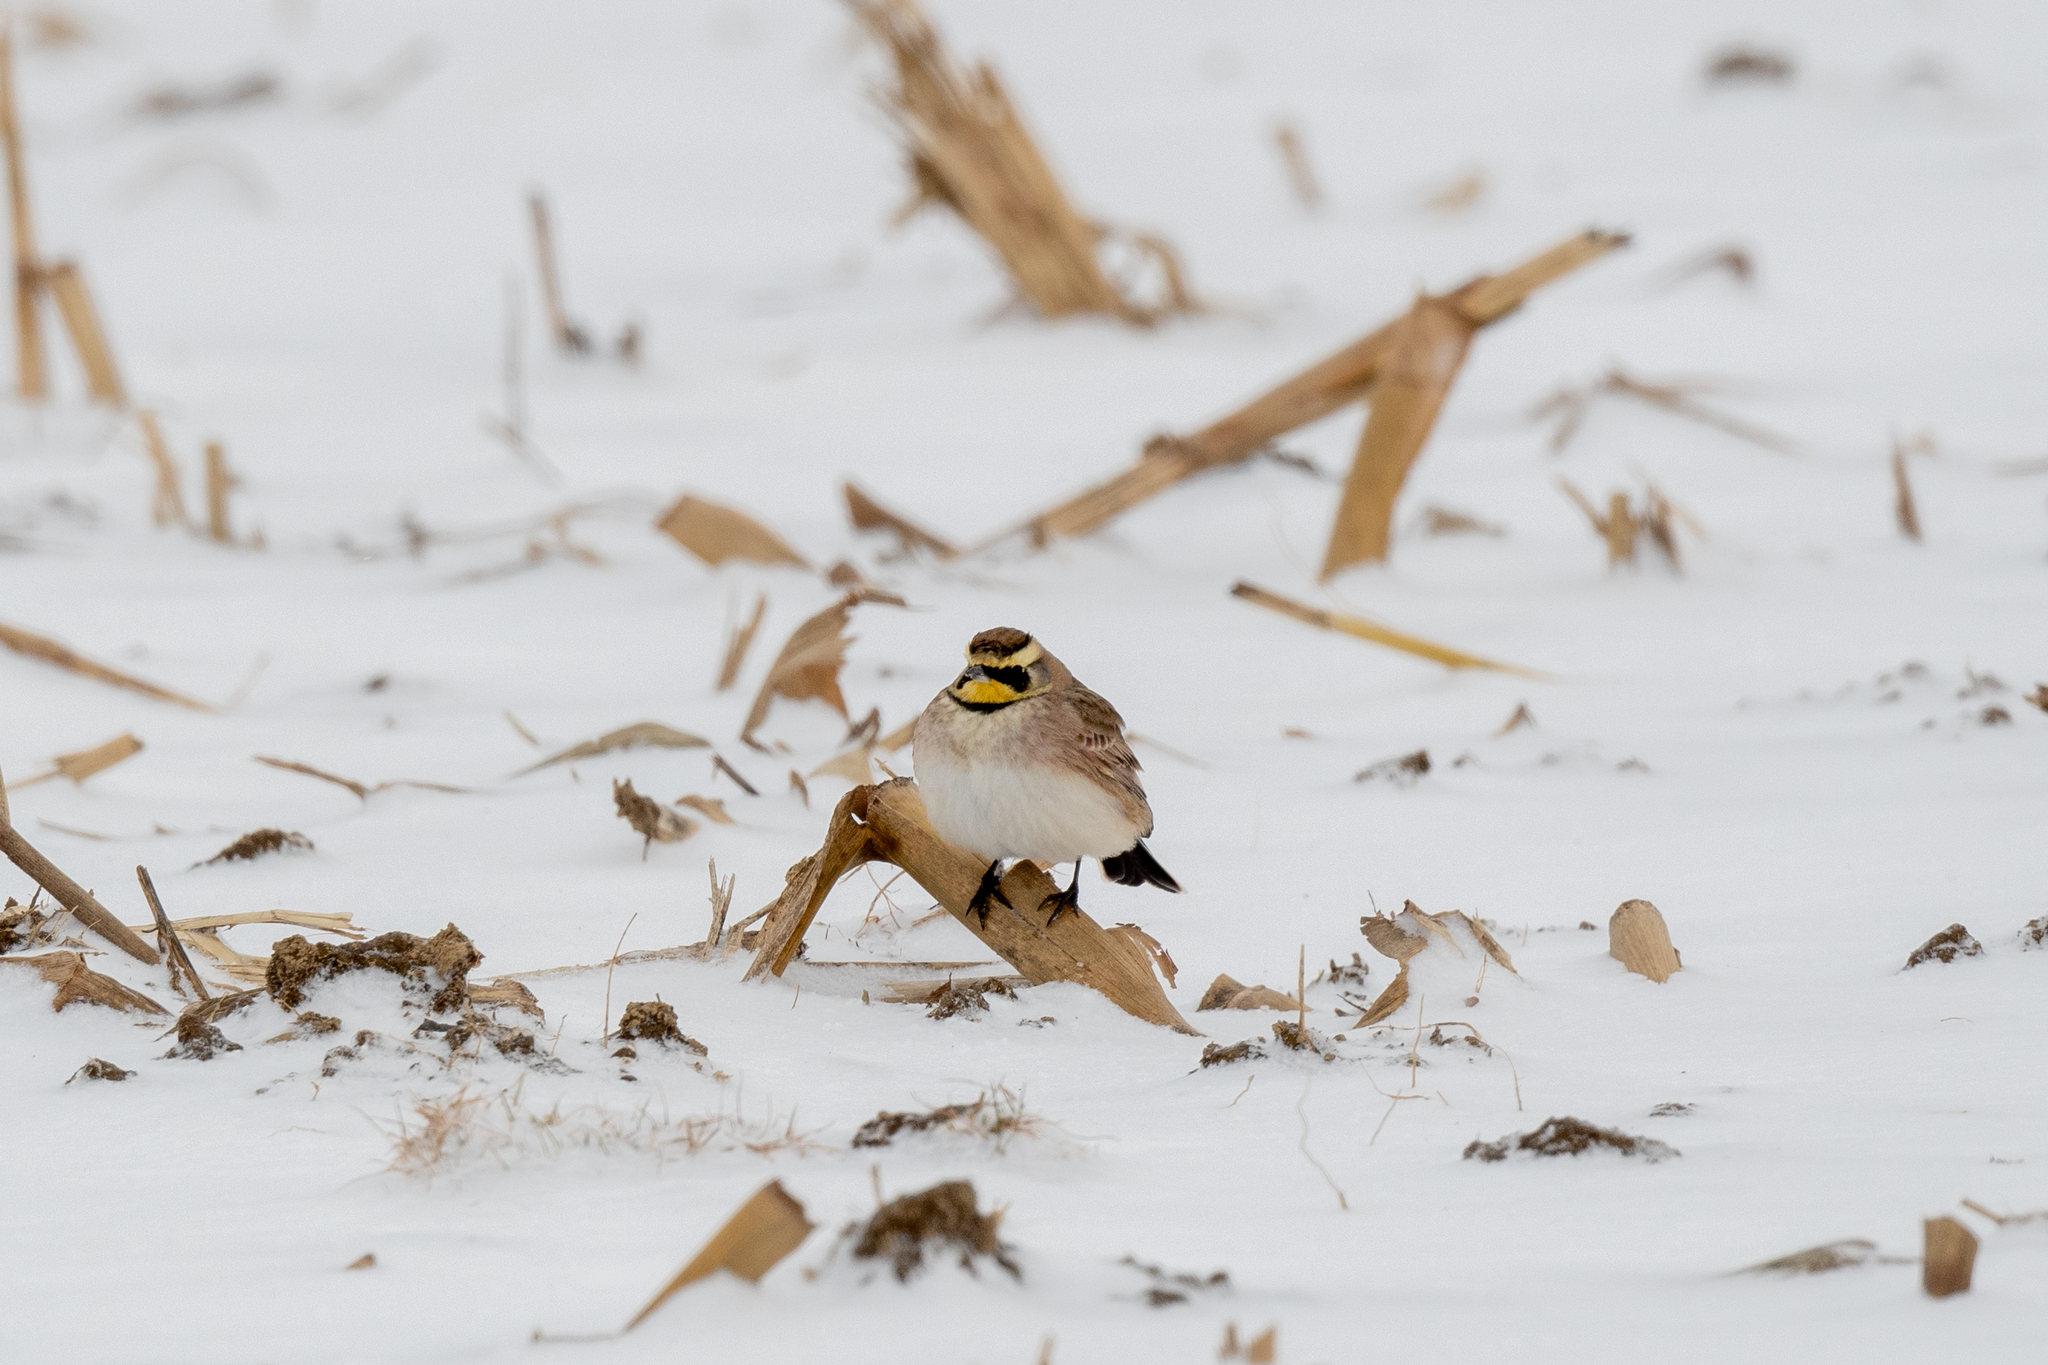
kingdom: Animalia
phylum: Chordata
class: Aves
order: Passeriformes
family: Alaudidae
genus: Eremophila
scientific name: Eremophila alpestris
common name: Horned lark
